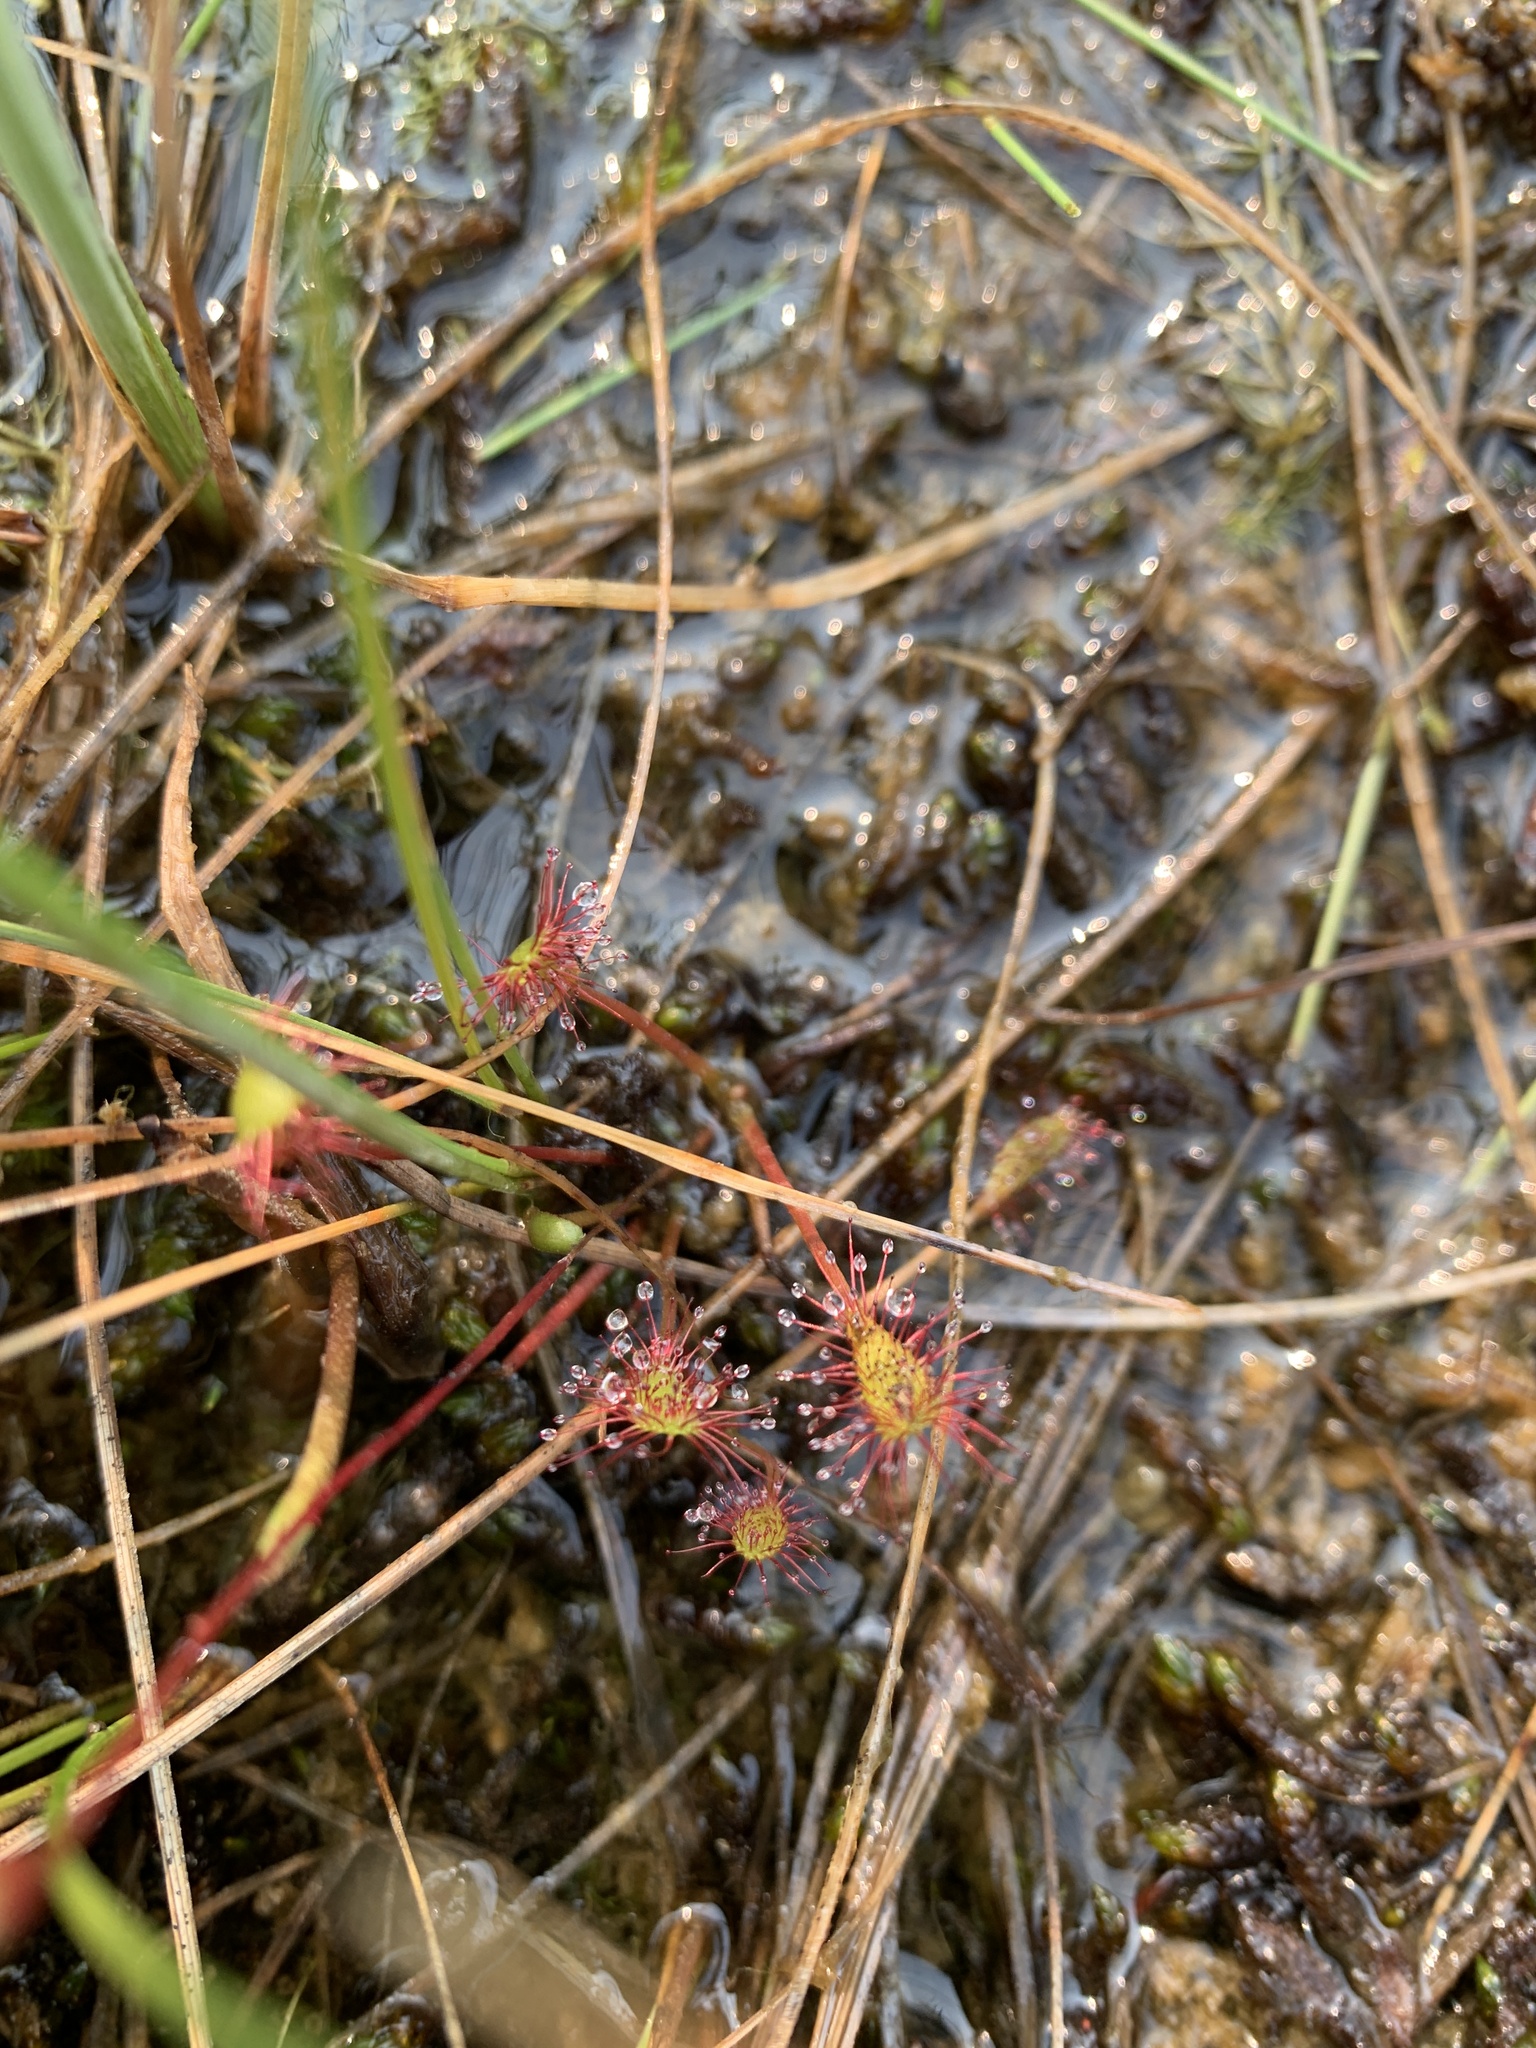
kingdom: Plantae
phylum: Tracheophyta
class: Magnoliopsida
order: Caryophyllales
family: Droseraceae
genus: Drosera
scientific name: Drosera anglica
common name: Great sundew
